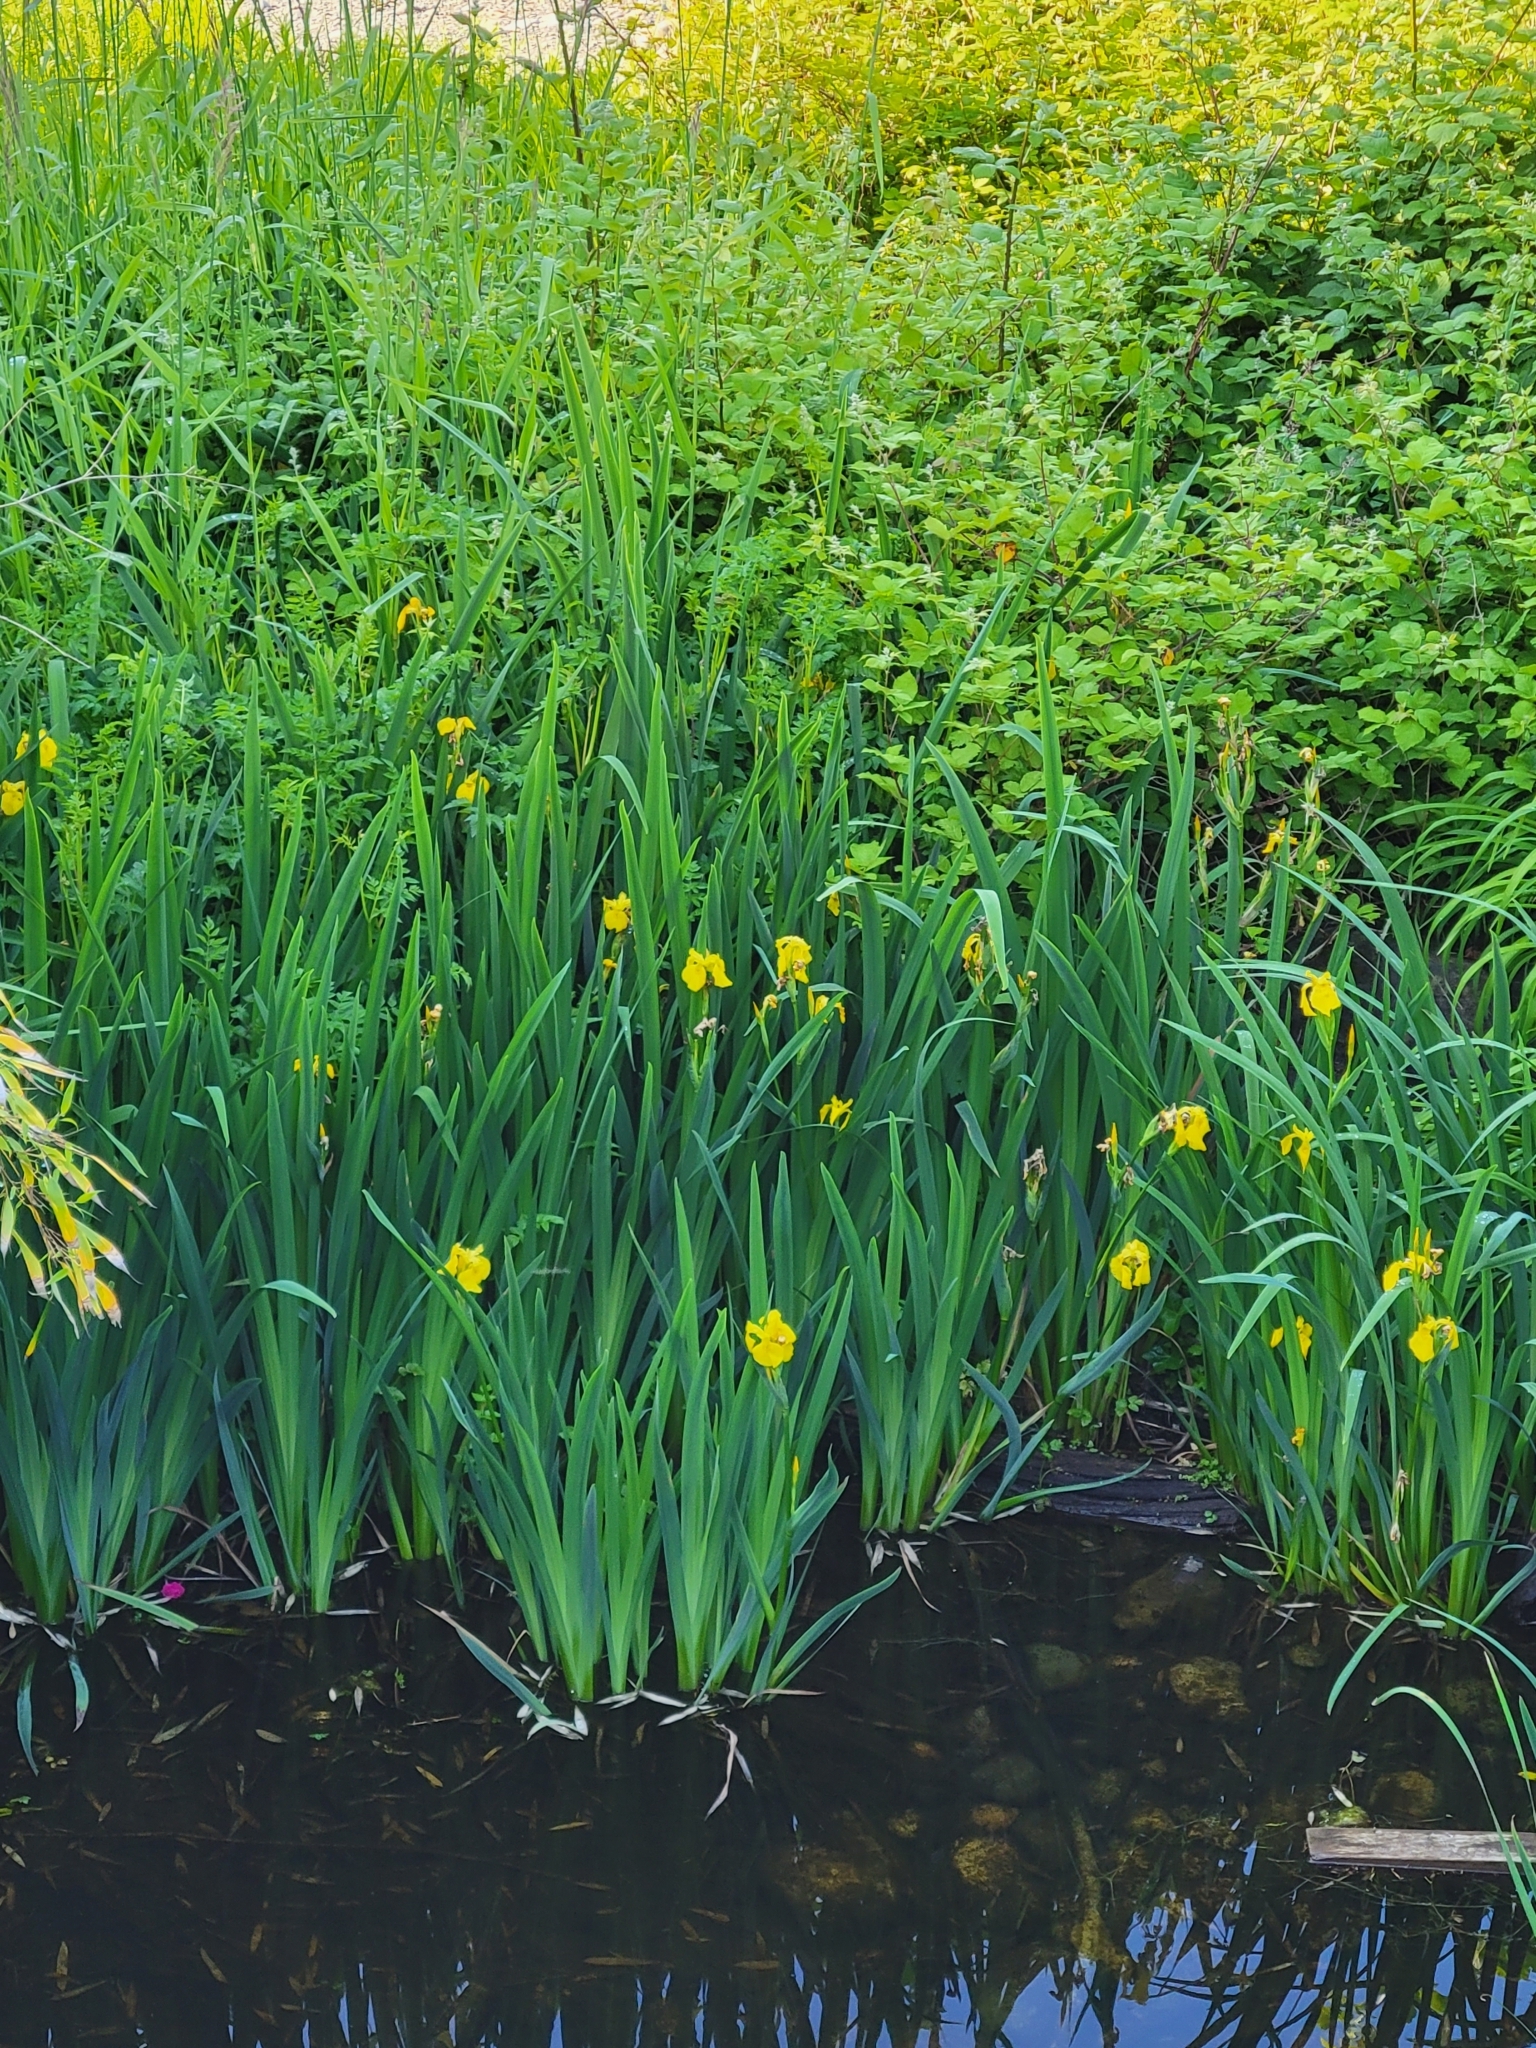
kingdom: Plantae
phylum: Tracheophyta
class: Liliopsida
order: Asparagales
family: Iridaceae
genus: Iris
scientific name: Iris pseudacorus
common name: Yellow flag
